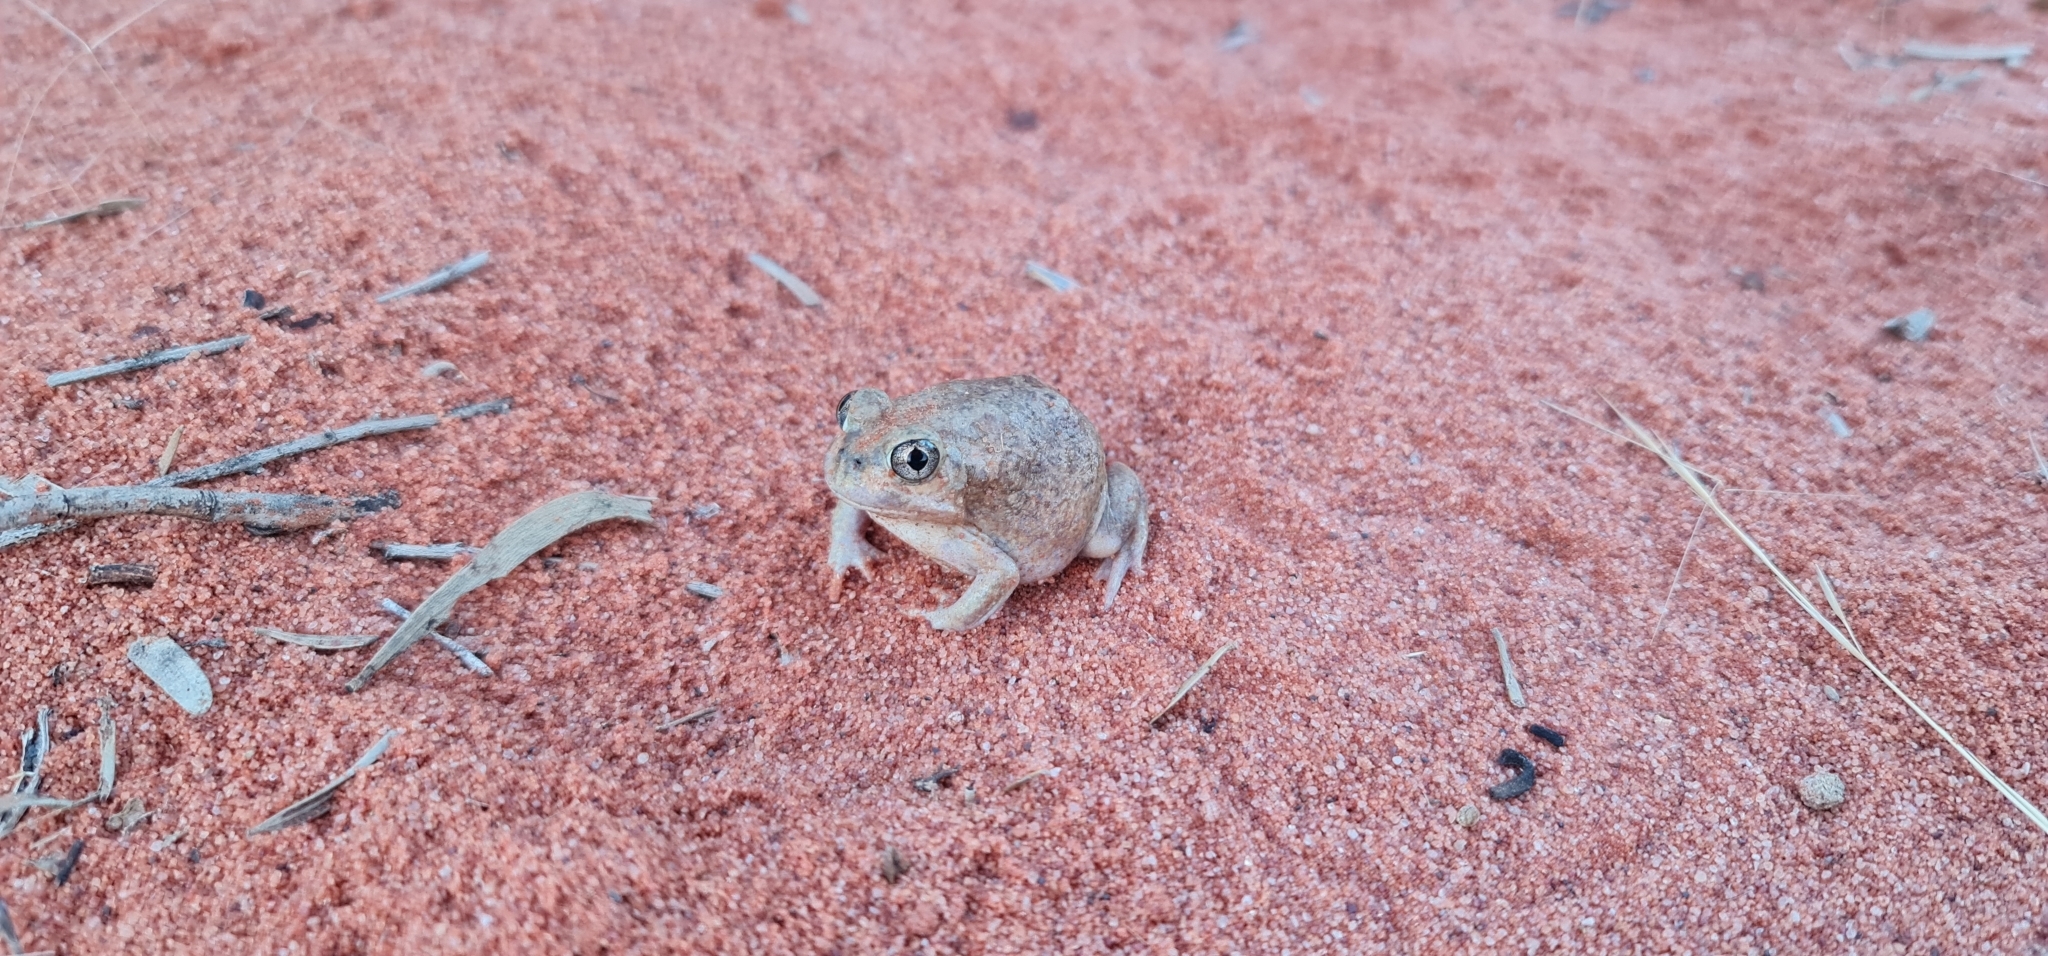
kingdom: Animalia
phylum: Chordata
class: Amphibia
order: Anura
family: Limnodynastidae
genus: Neobatrachus
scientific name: Neobatrachus sudelli
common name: Common spadefoot toad
